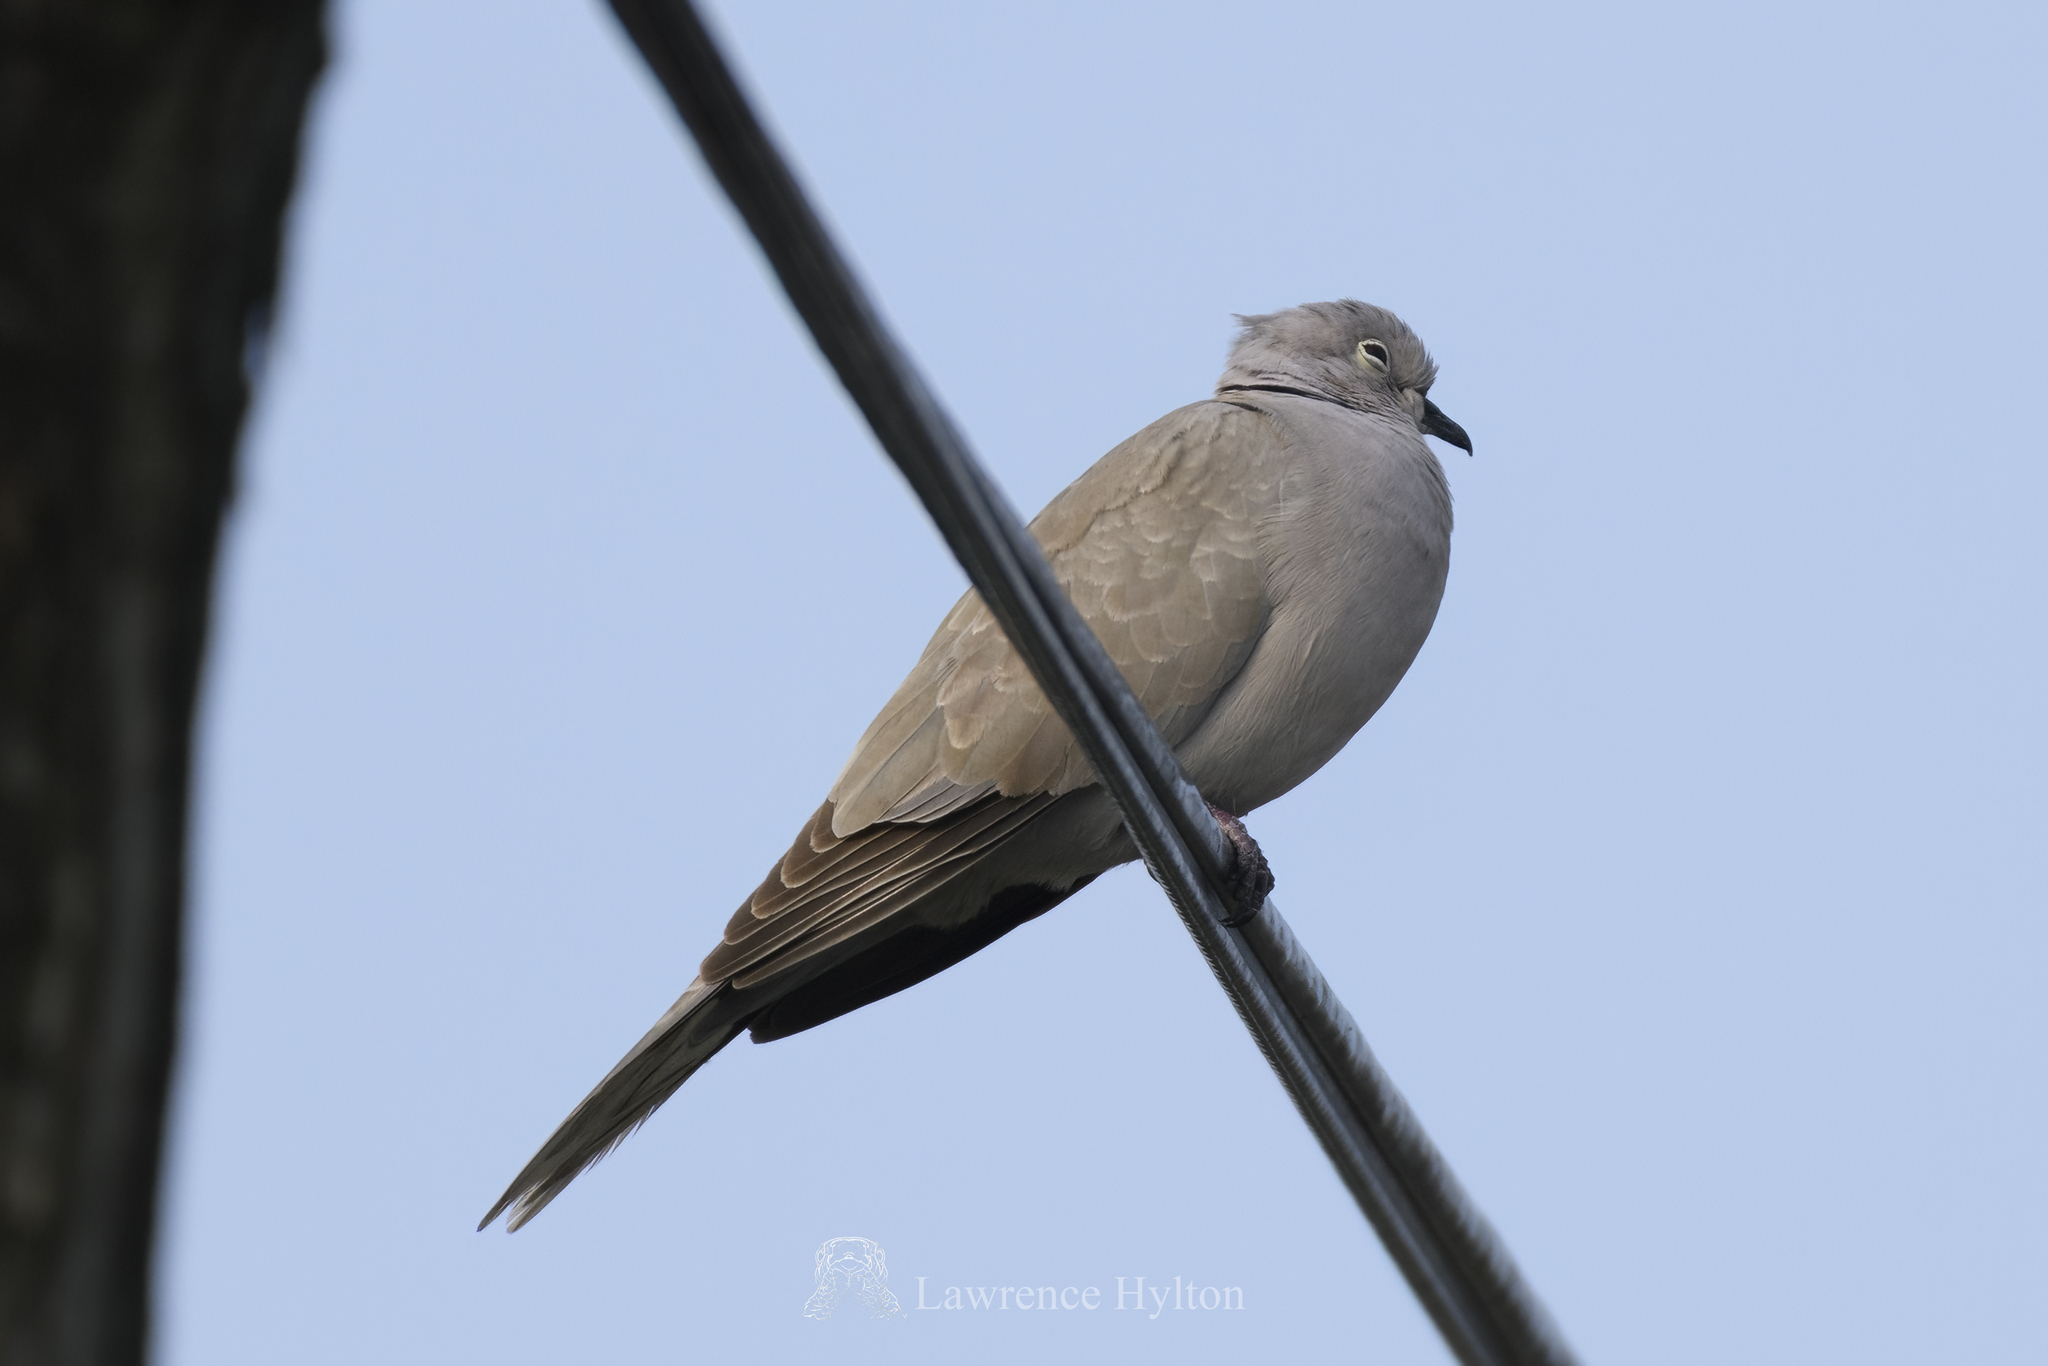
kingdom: Animalia
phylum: Chordata
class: Aves
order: Columbiformes
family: Columbidae
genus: Streptopelia
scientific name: Streptopelia decaocto
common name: Eurasian collared dove
